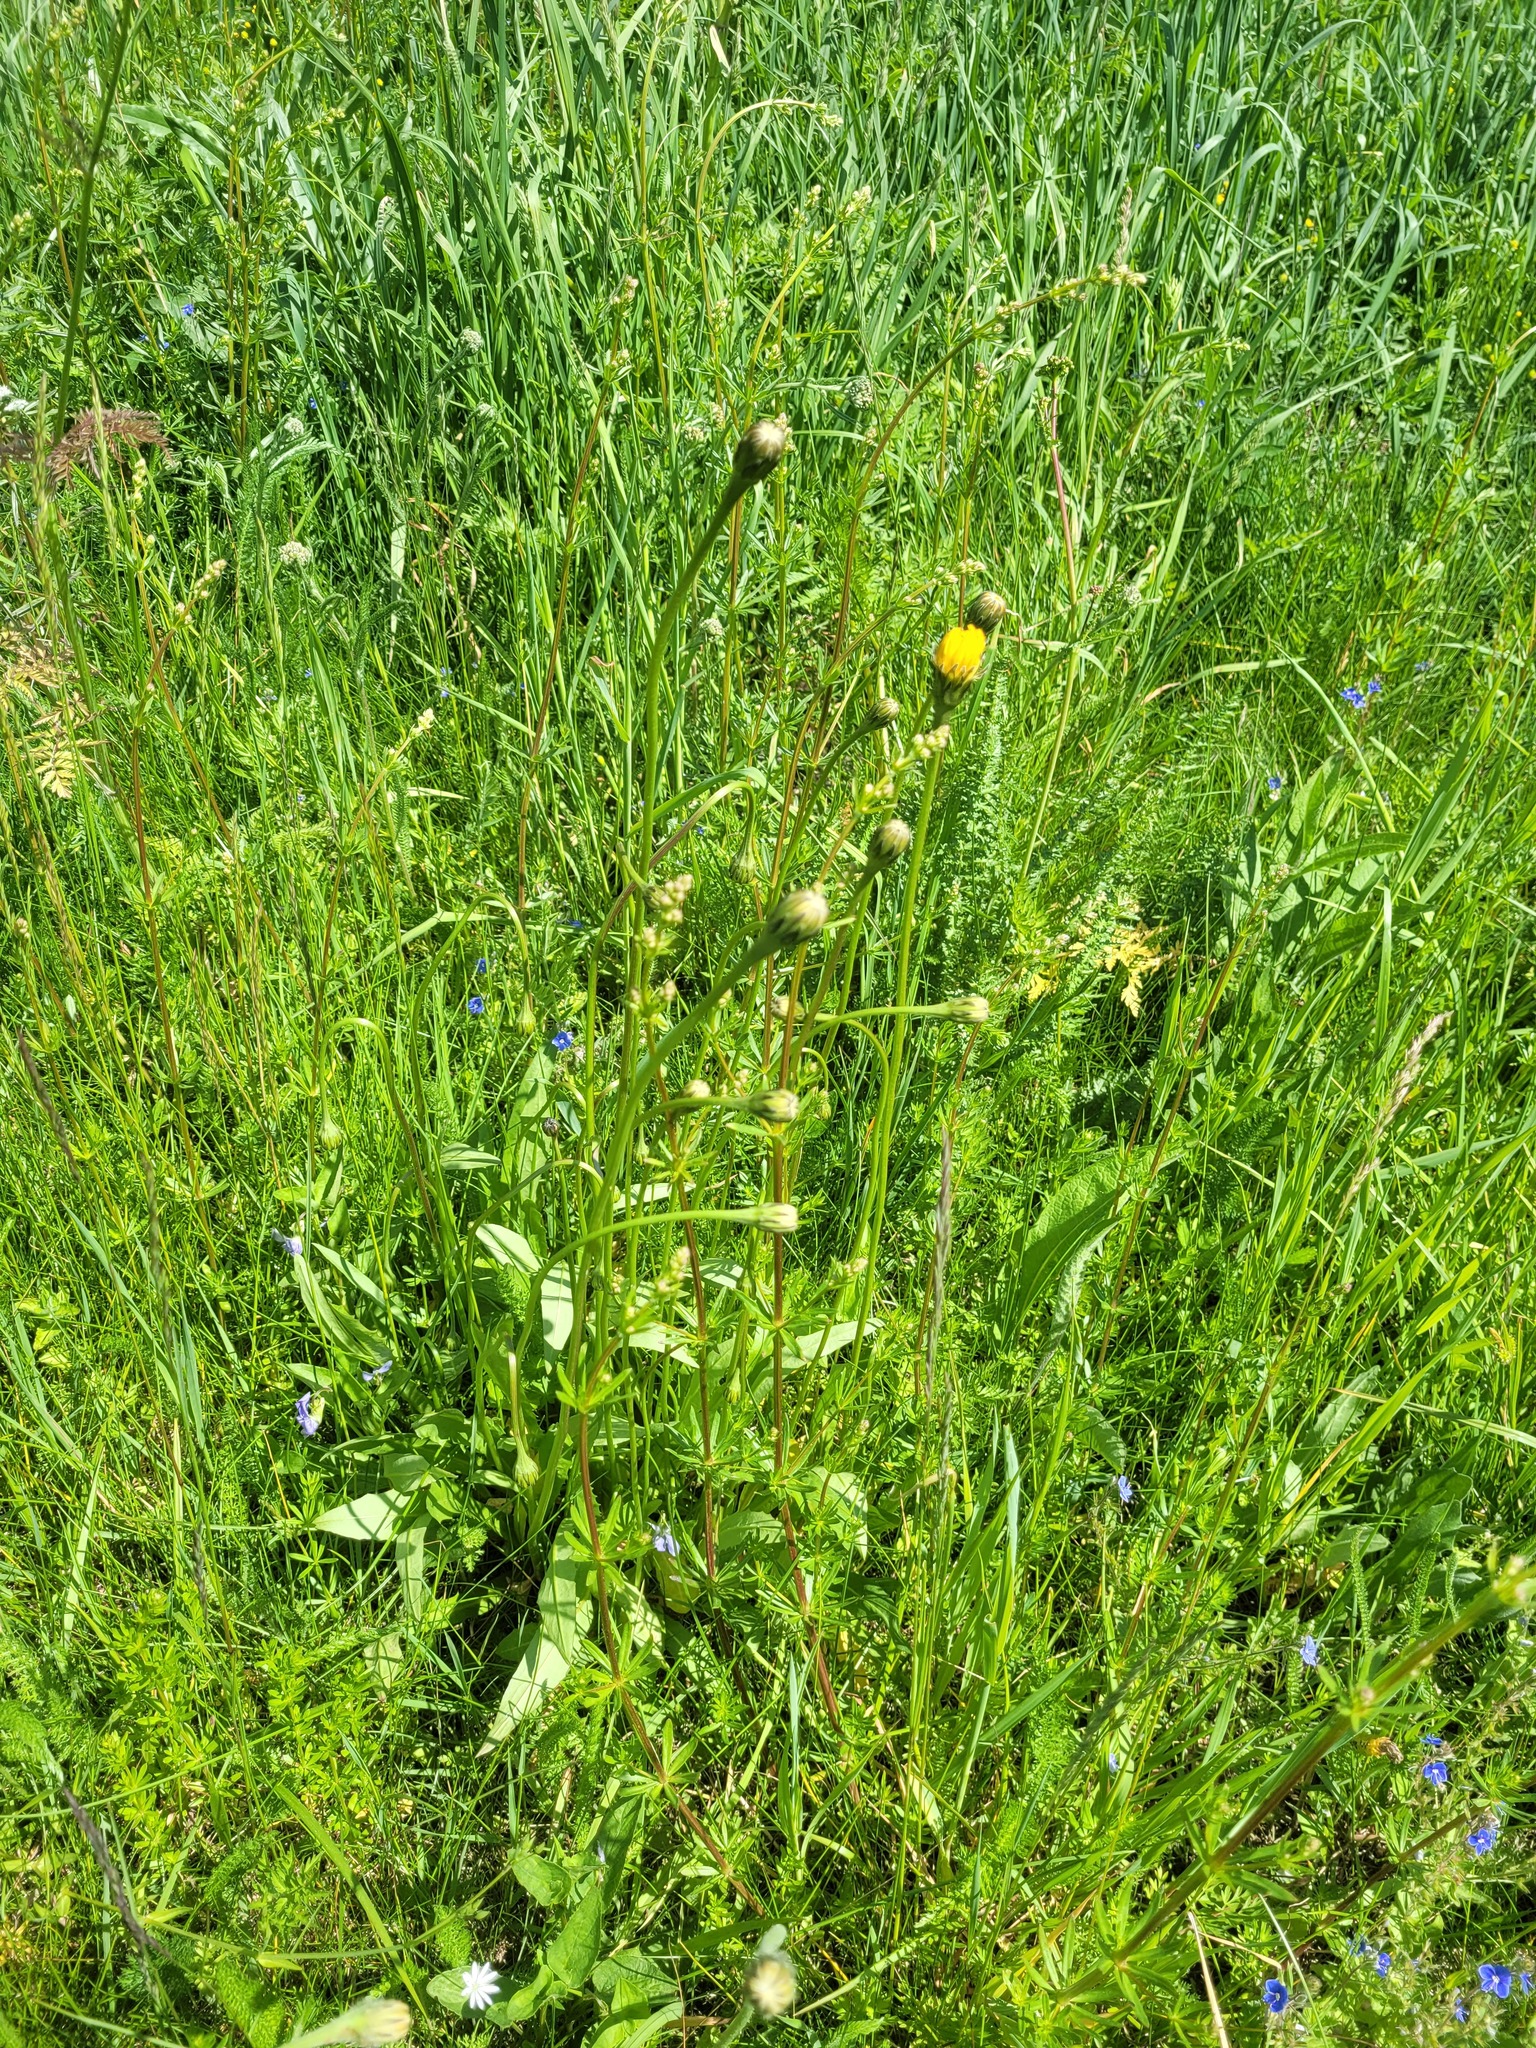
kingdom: Plantae
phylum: Tracheophyta
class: Magnoliopsida
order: Asterales
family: Asteraceae
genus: Leontodon
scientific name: Leontodon hispidus
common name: Rough hawkbit
